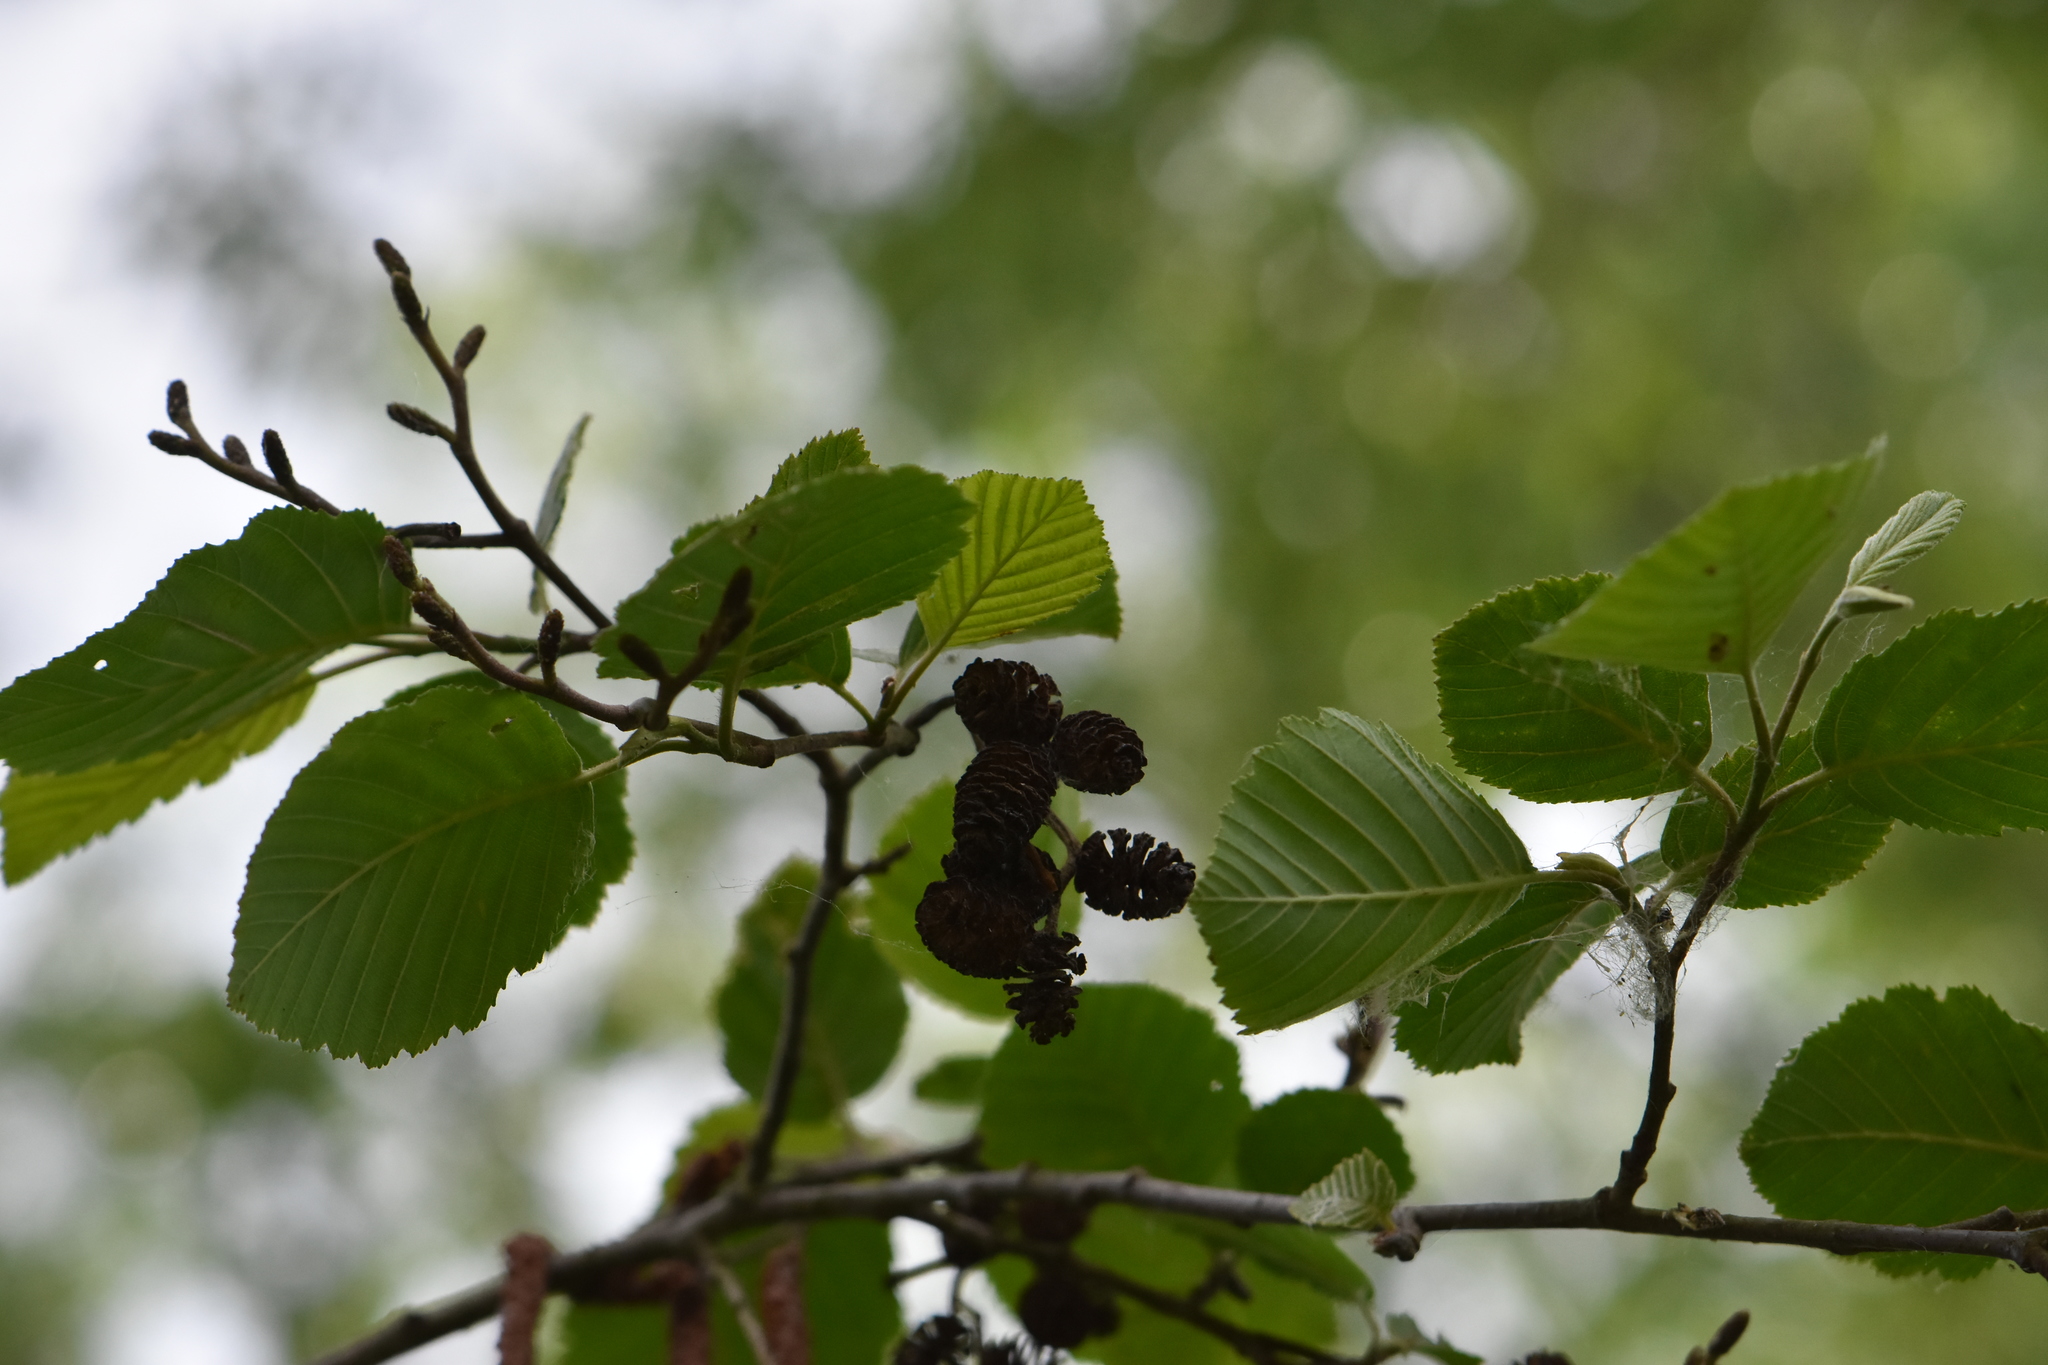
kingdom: Plantae
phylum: Tracheophyta
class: Magnoliopsida
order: Fagales
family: Betulaceae
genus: Alnus
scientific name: Alnus incana
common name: Grey alder
